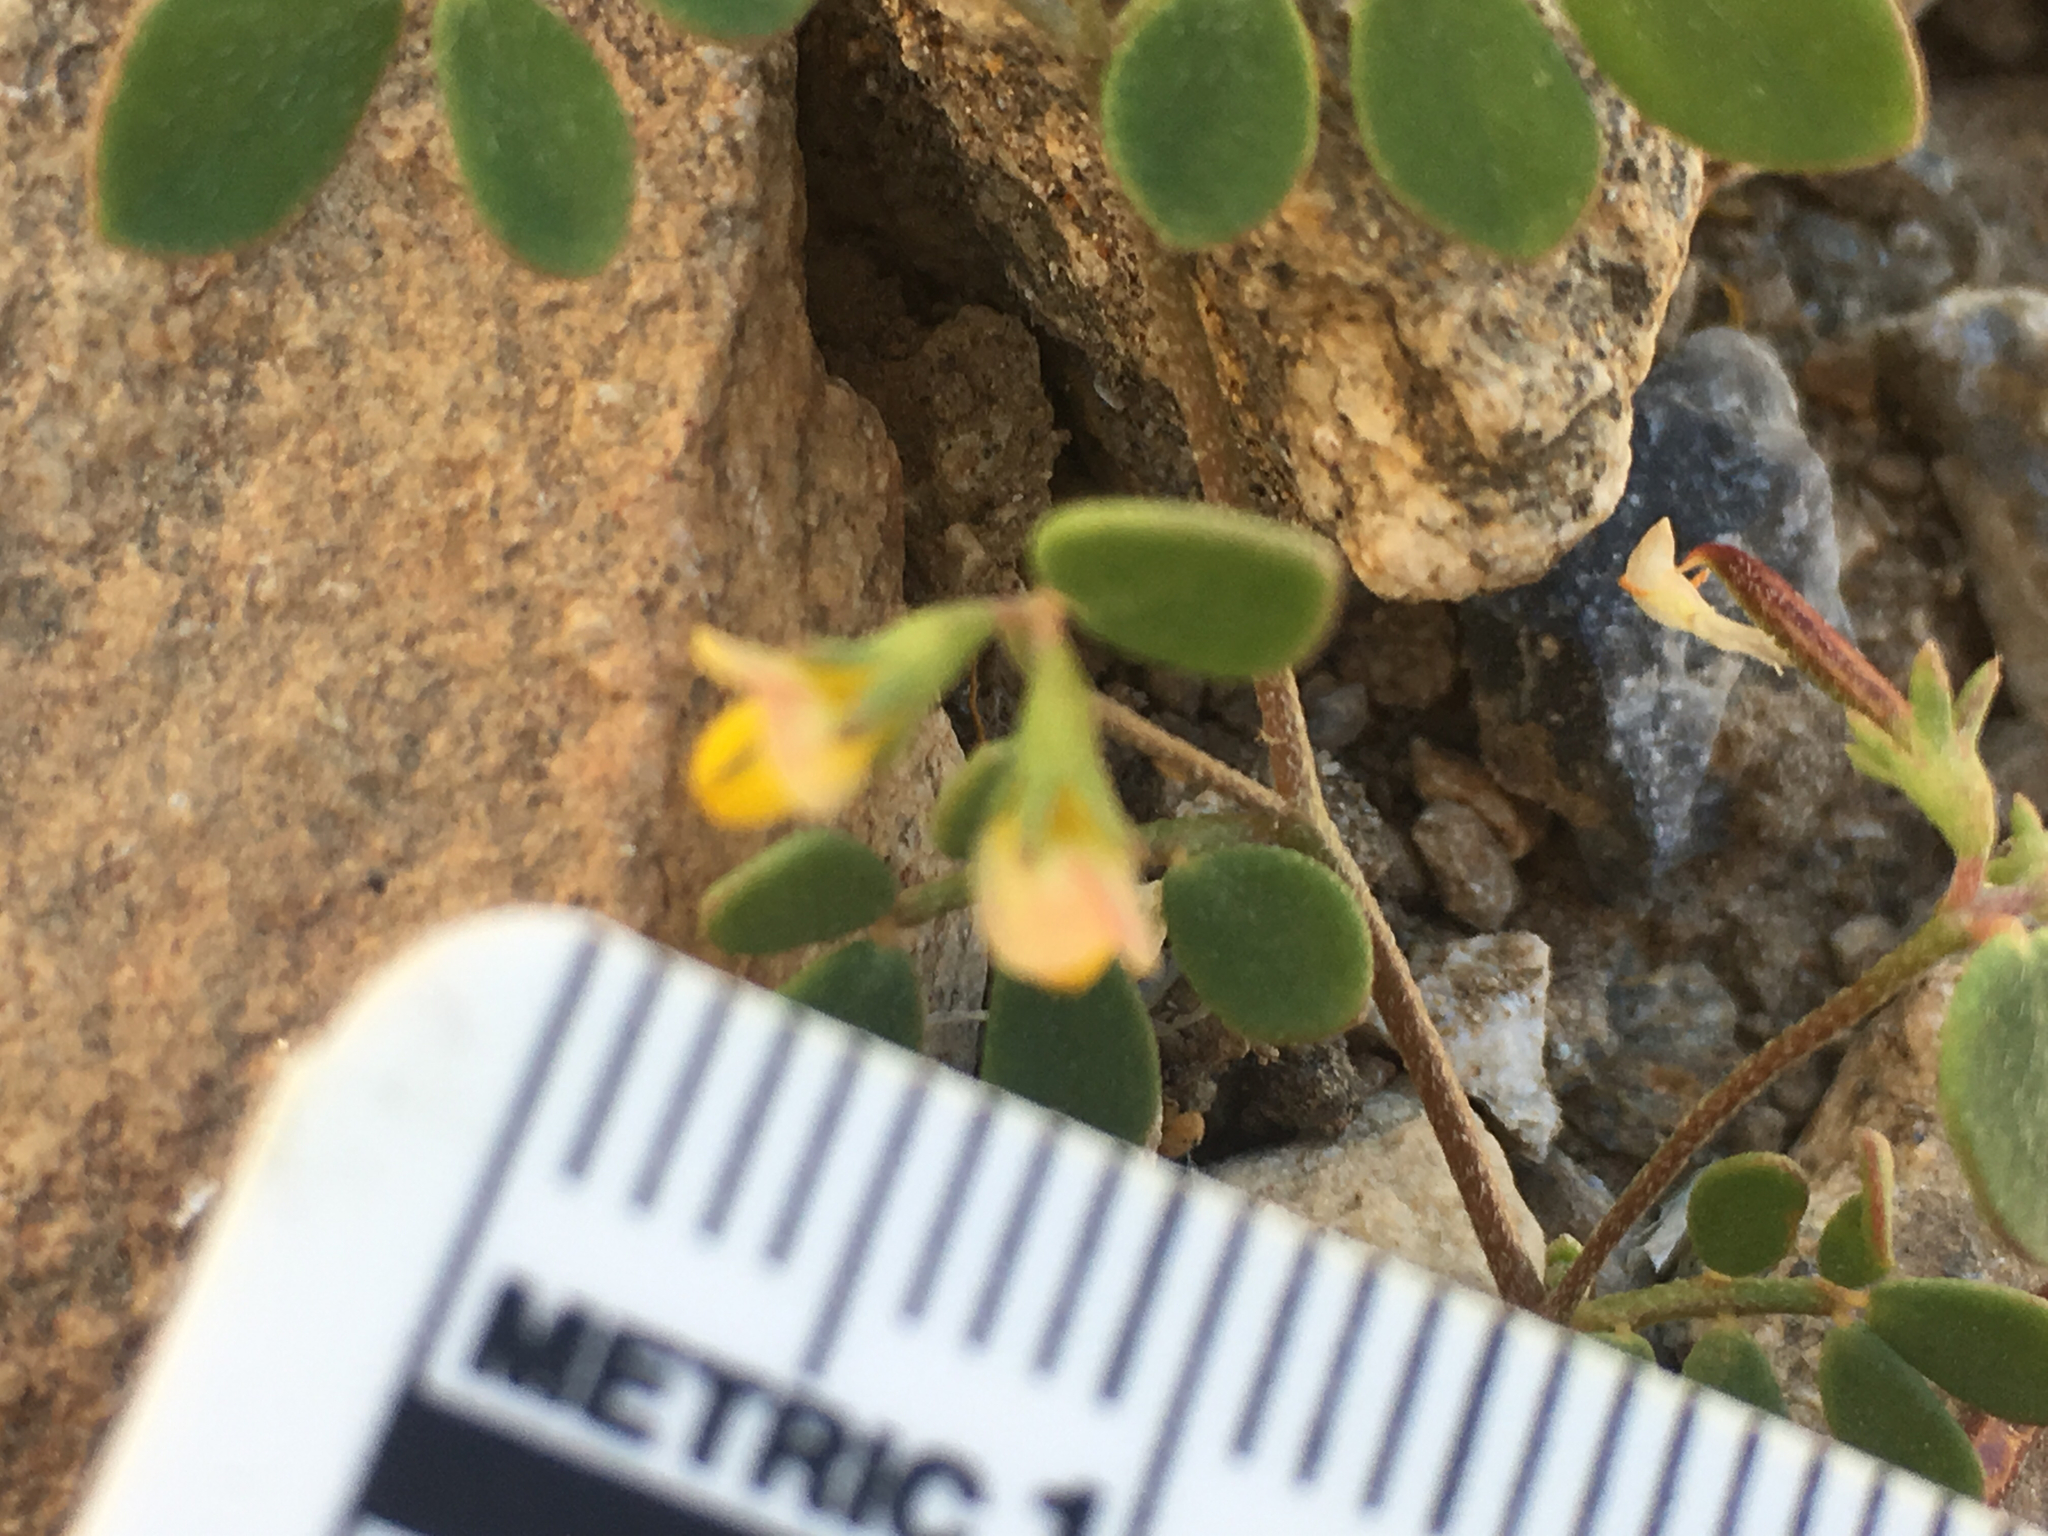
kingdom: Plantae
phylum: Tracheophyta
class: Magnoliopsida
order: Fabales
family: Fabaceae
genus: Acmispon
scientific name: Acmispon maritimus
